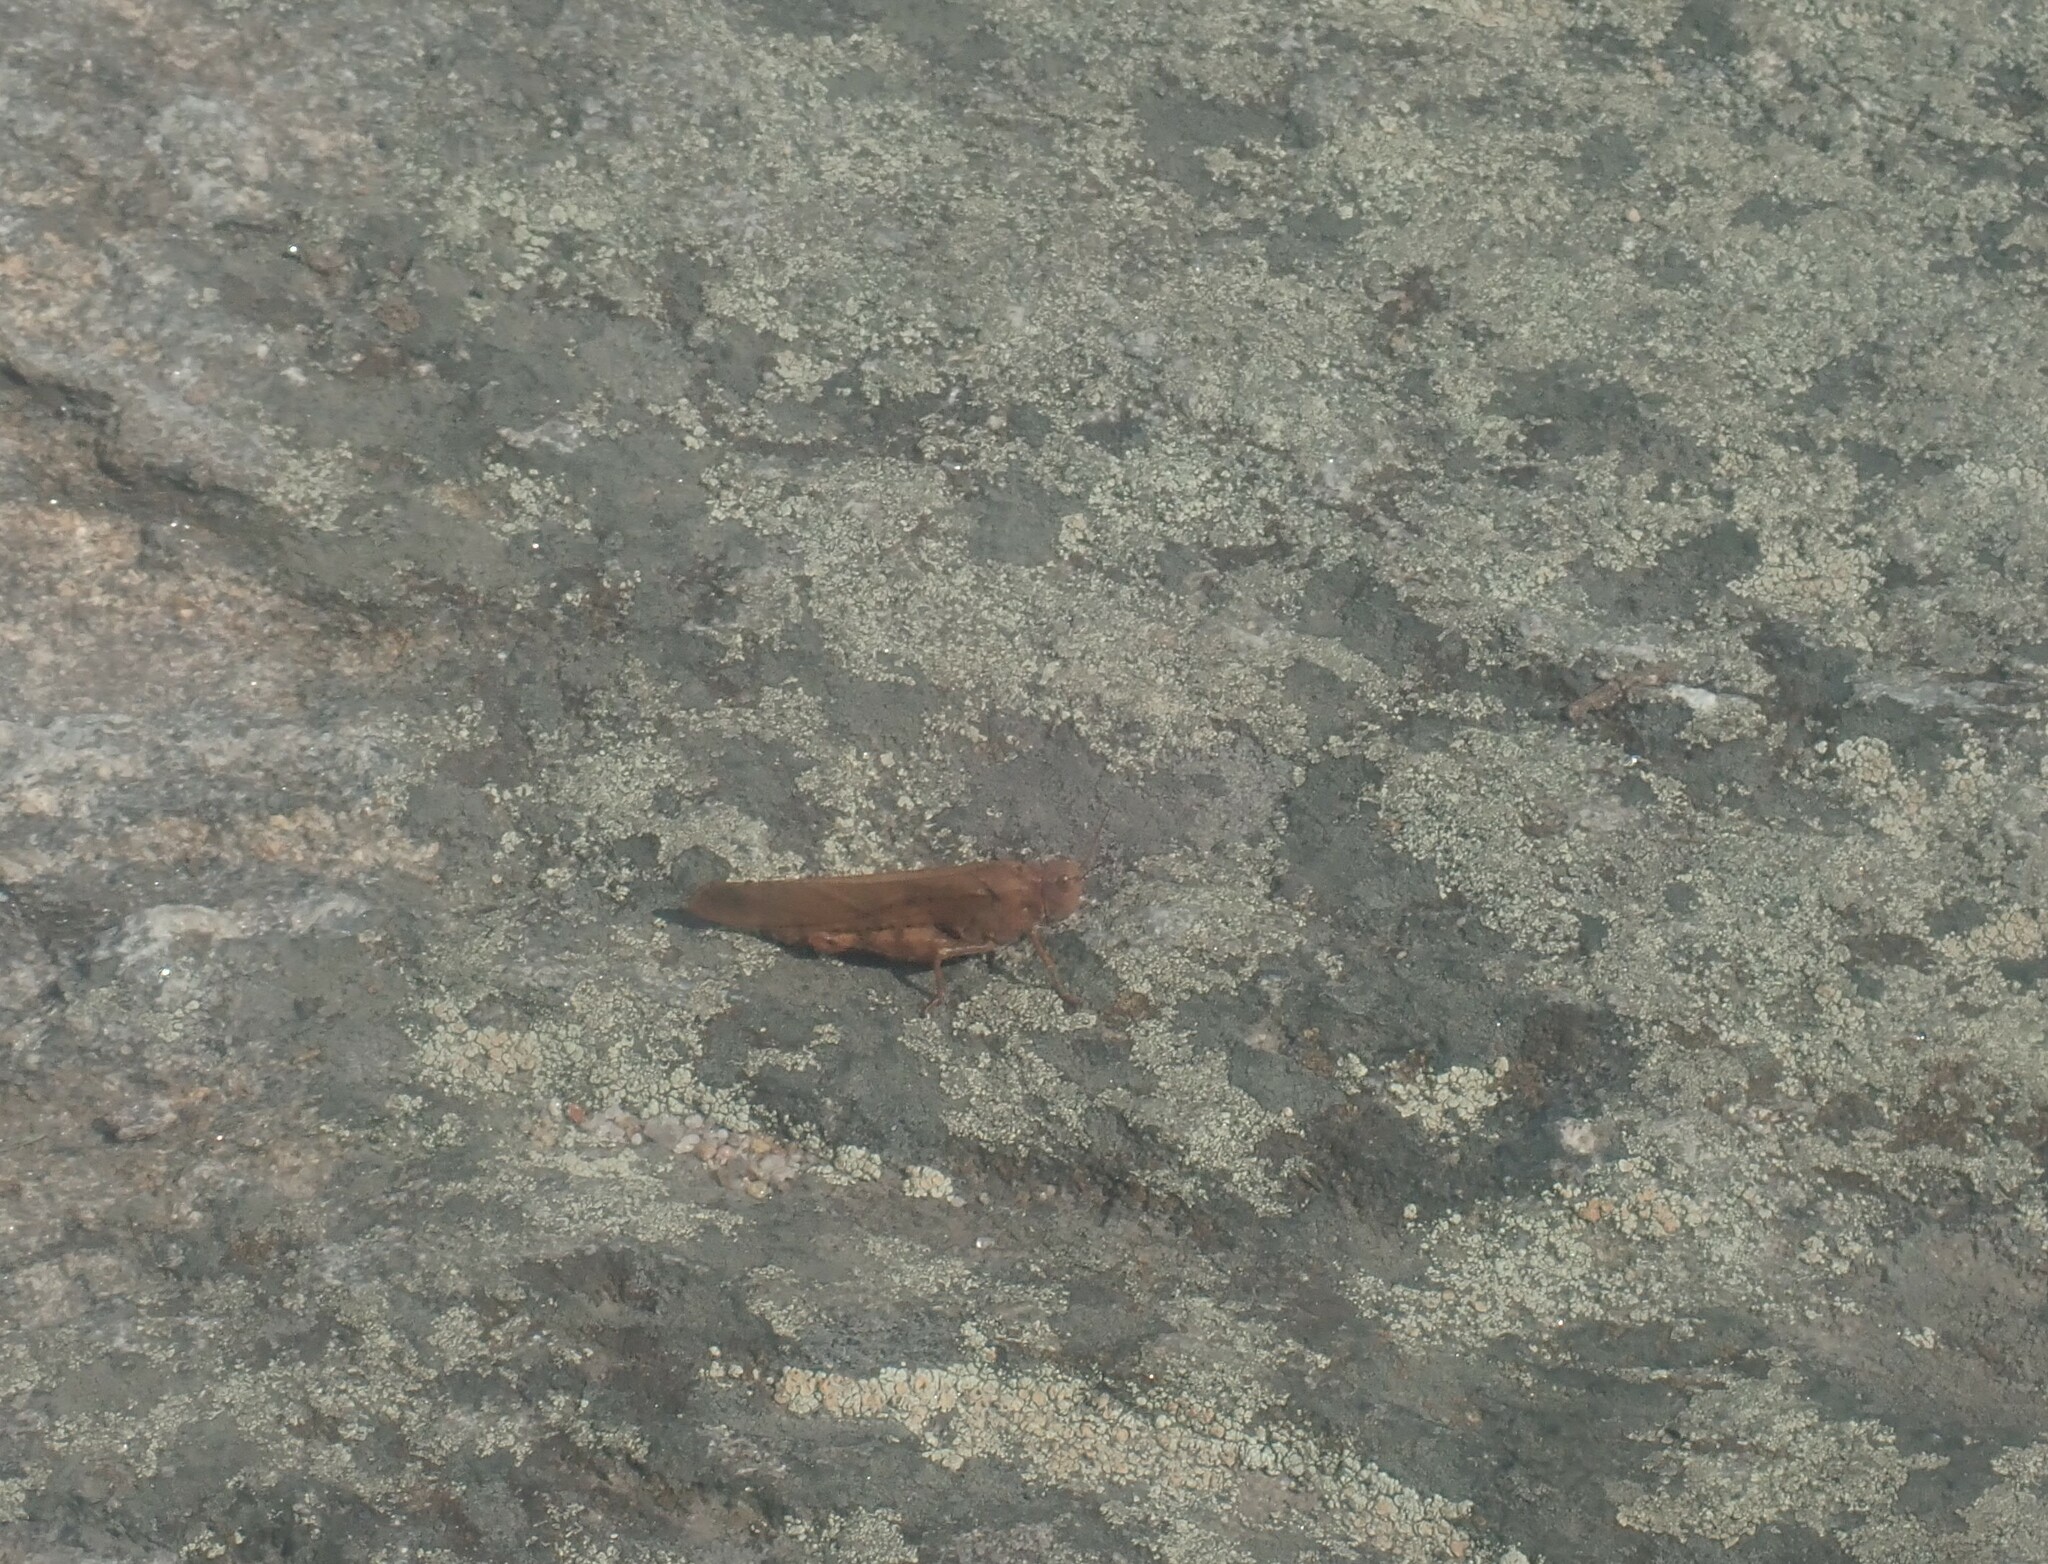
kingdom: Animalia
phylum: Arthropoda
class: Insecta
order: Orthoptera
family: Acrididae
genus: Dissosteira
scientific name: Dissosteira carolina
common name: Carolina grasshopper
